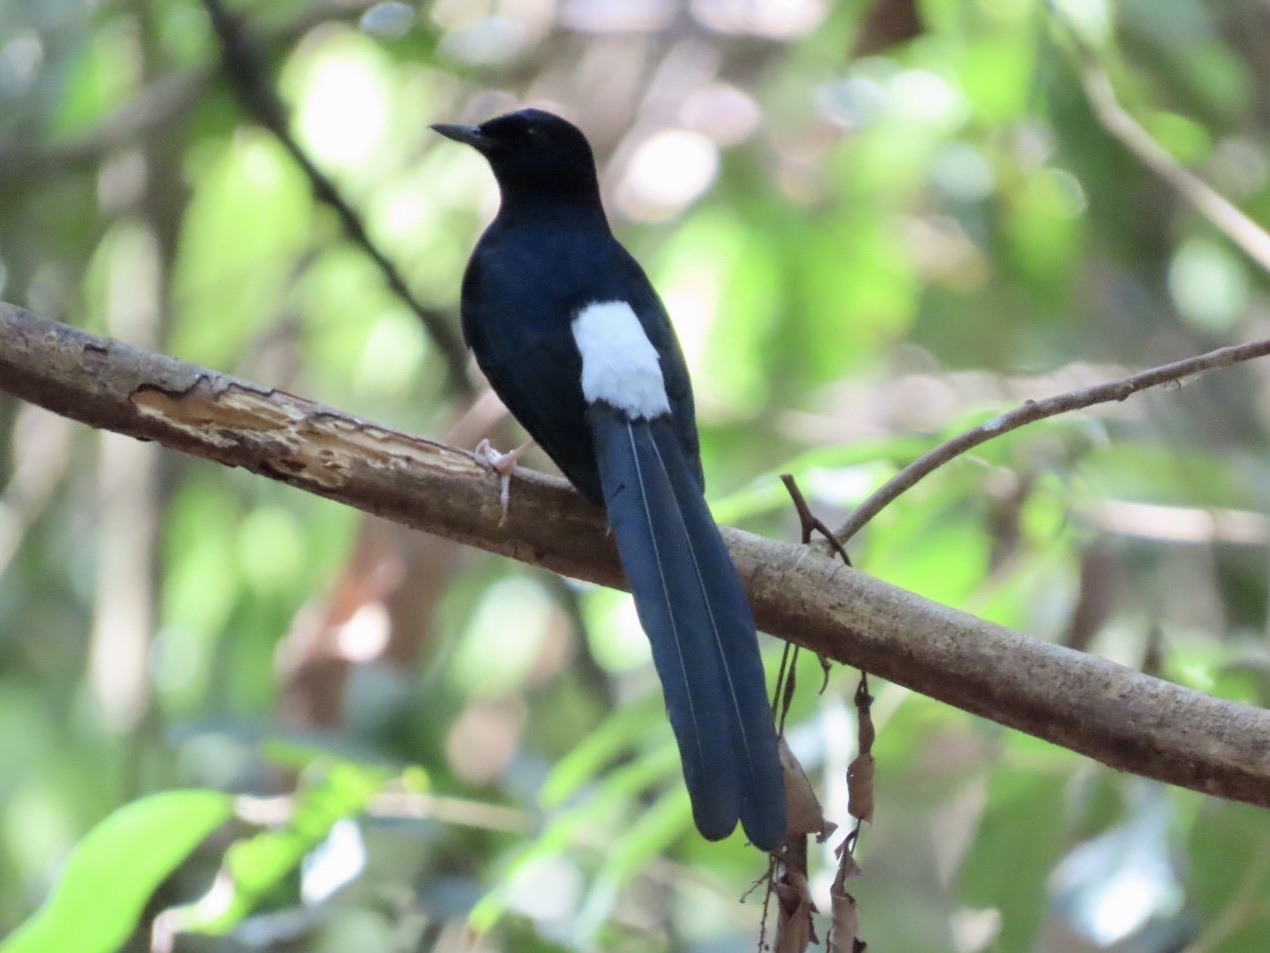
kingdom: Animalia
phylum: Chordata
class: Aves
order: Passeriformes
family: Muscicapidae
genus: Copsychus
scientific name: Copsychus malabaricus
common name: White-rumped shama
